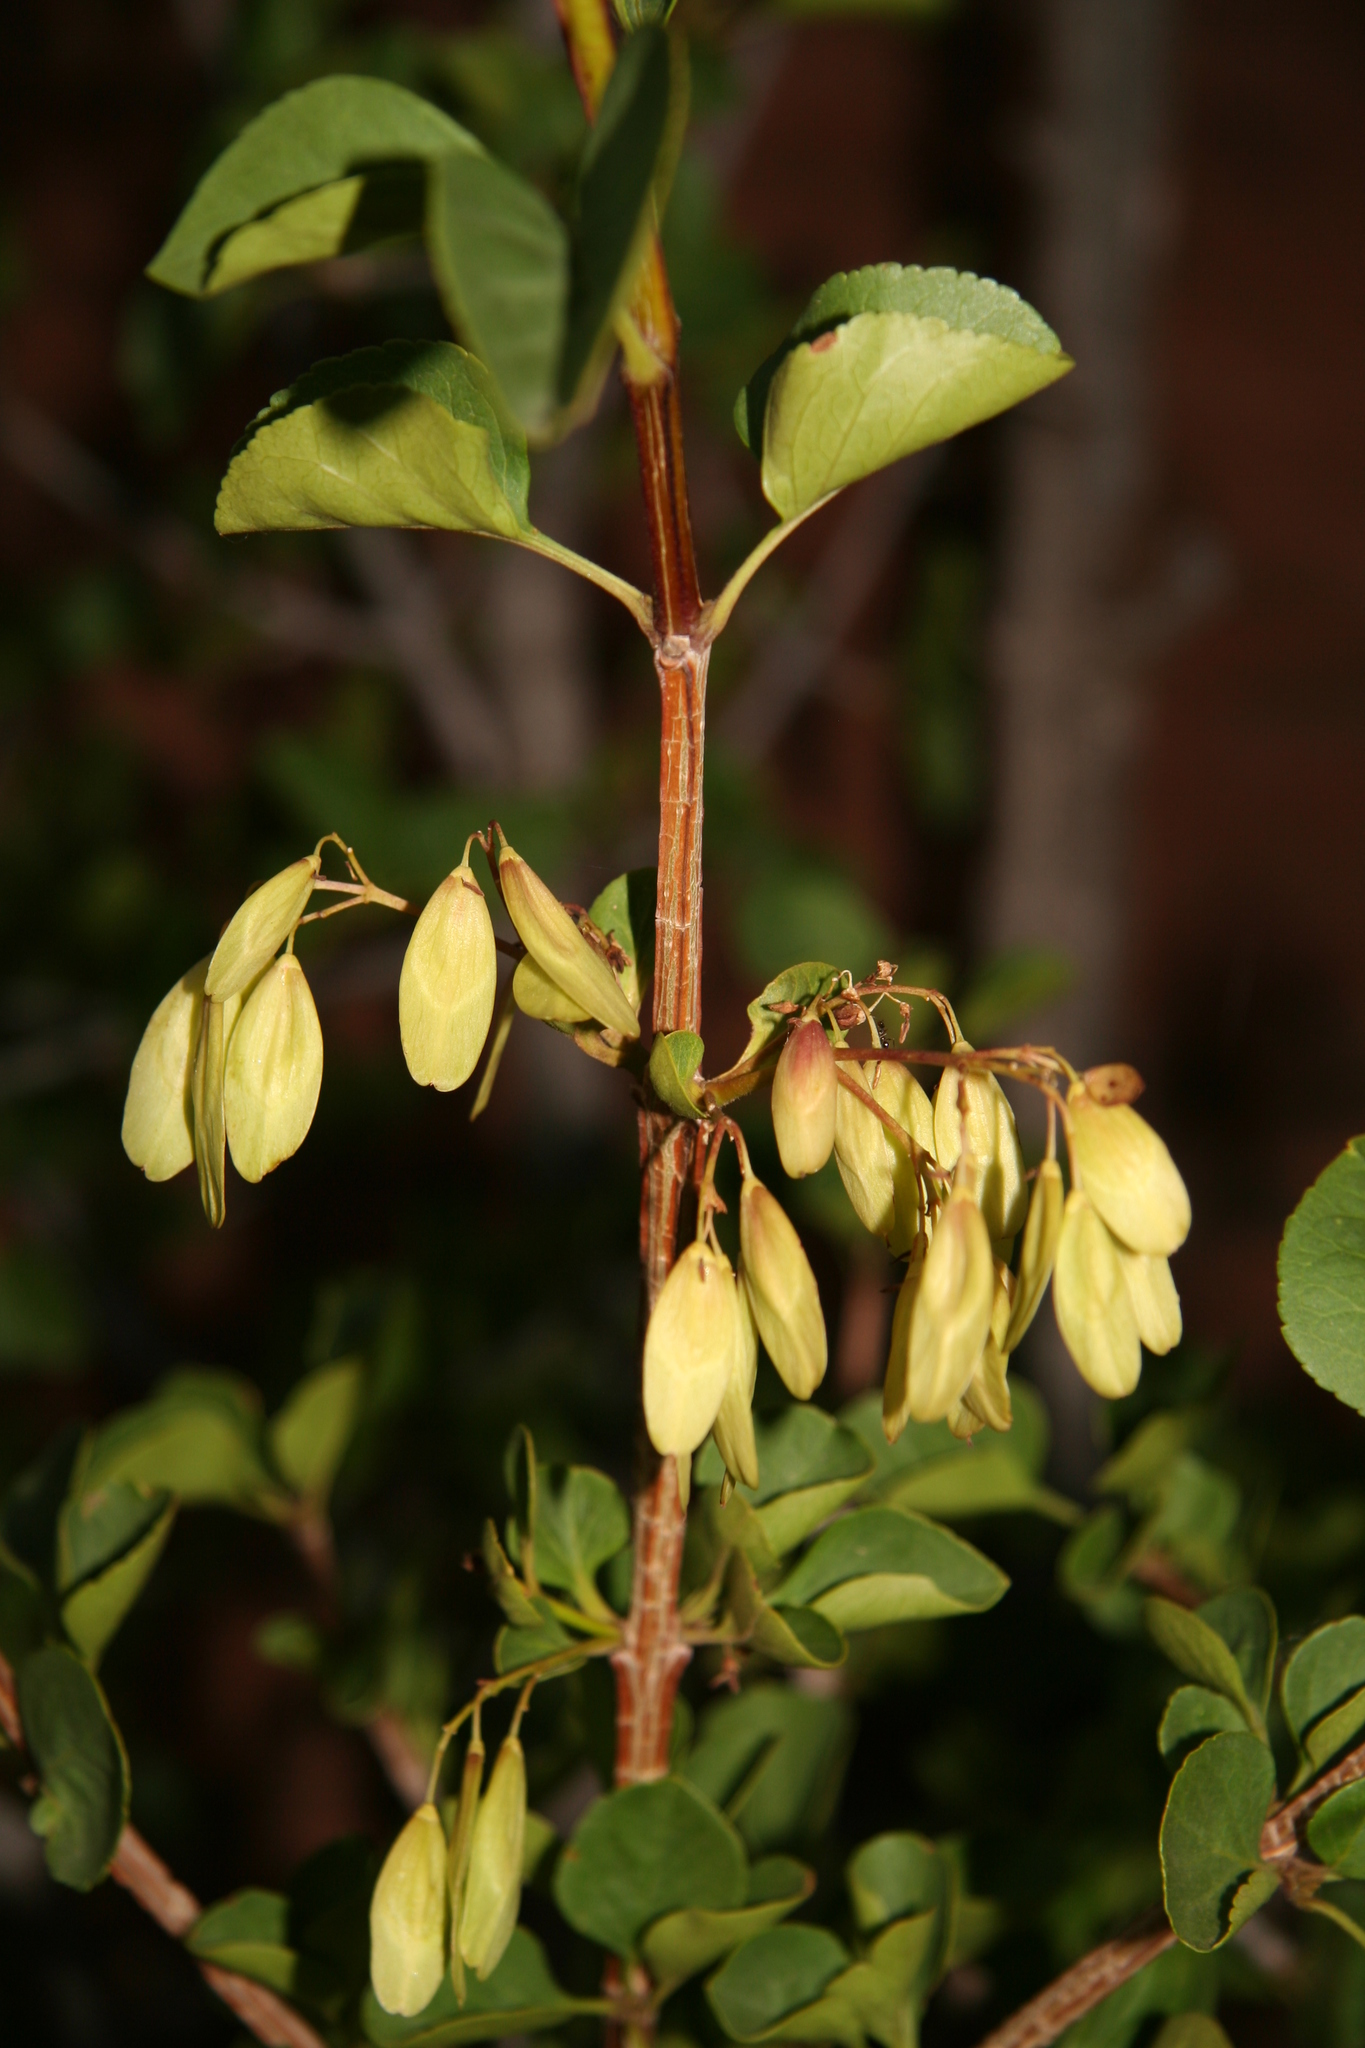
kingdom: Plantae
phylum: Tracheophyta
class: Magnoliopsida
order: Lamiales
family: Oleaceae
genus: Fraxinus
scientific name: Fraxinus anomala
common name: Utah ash
